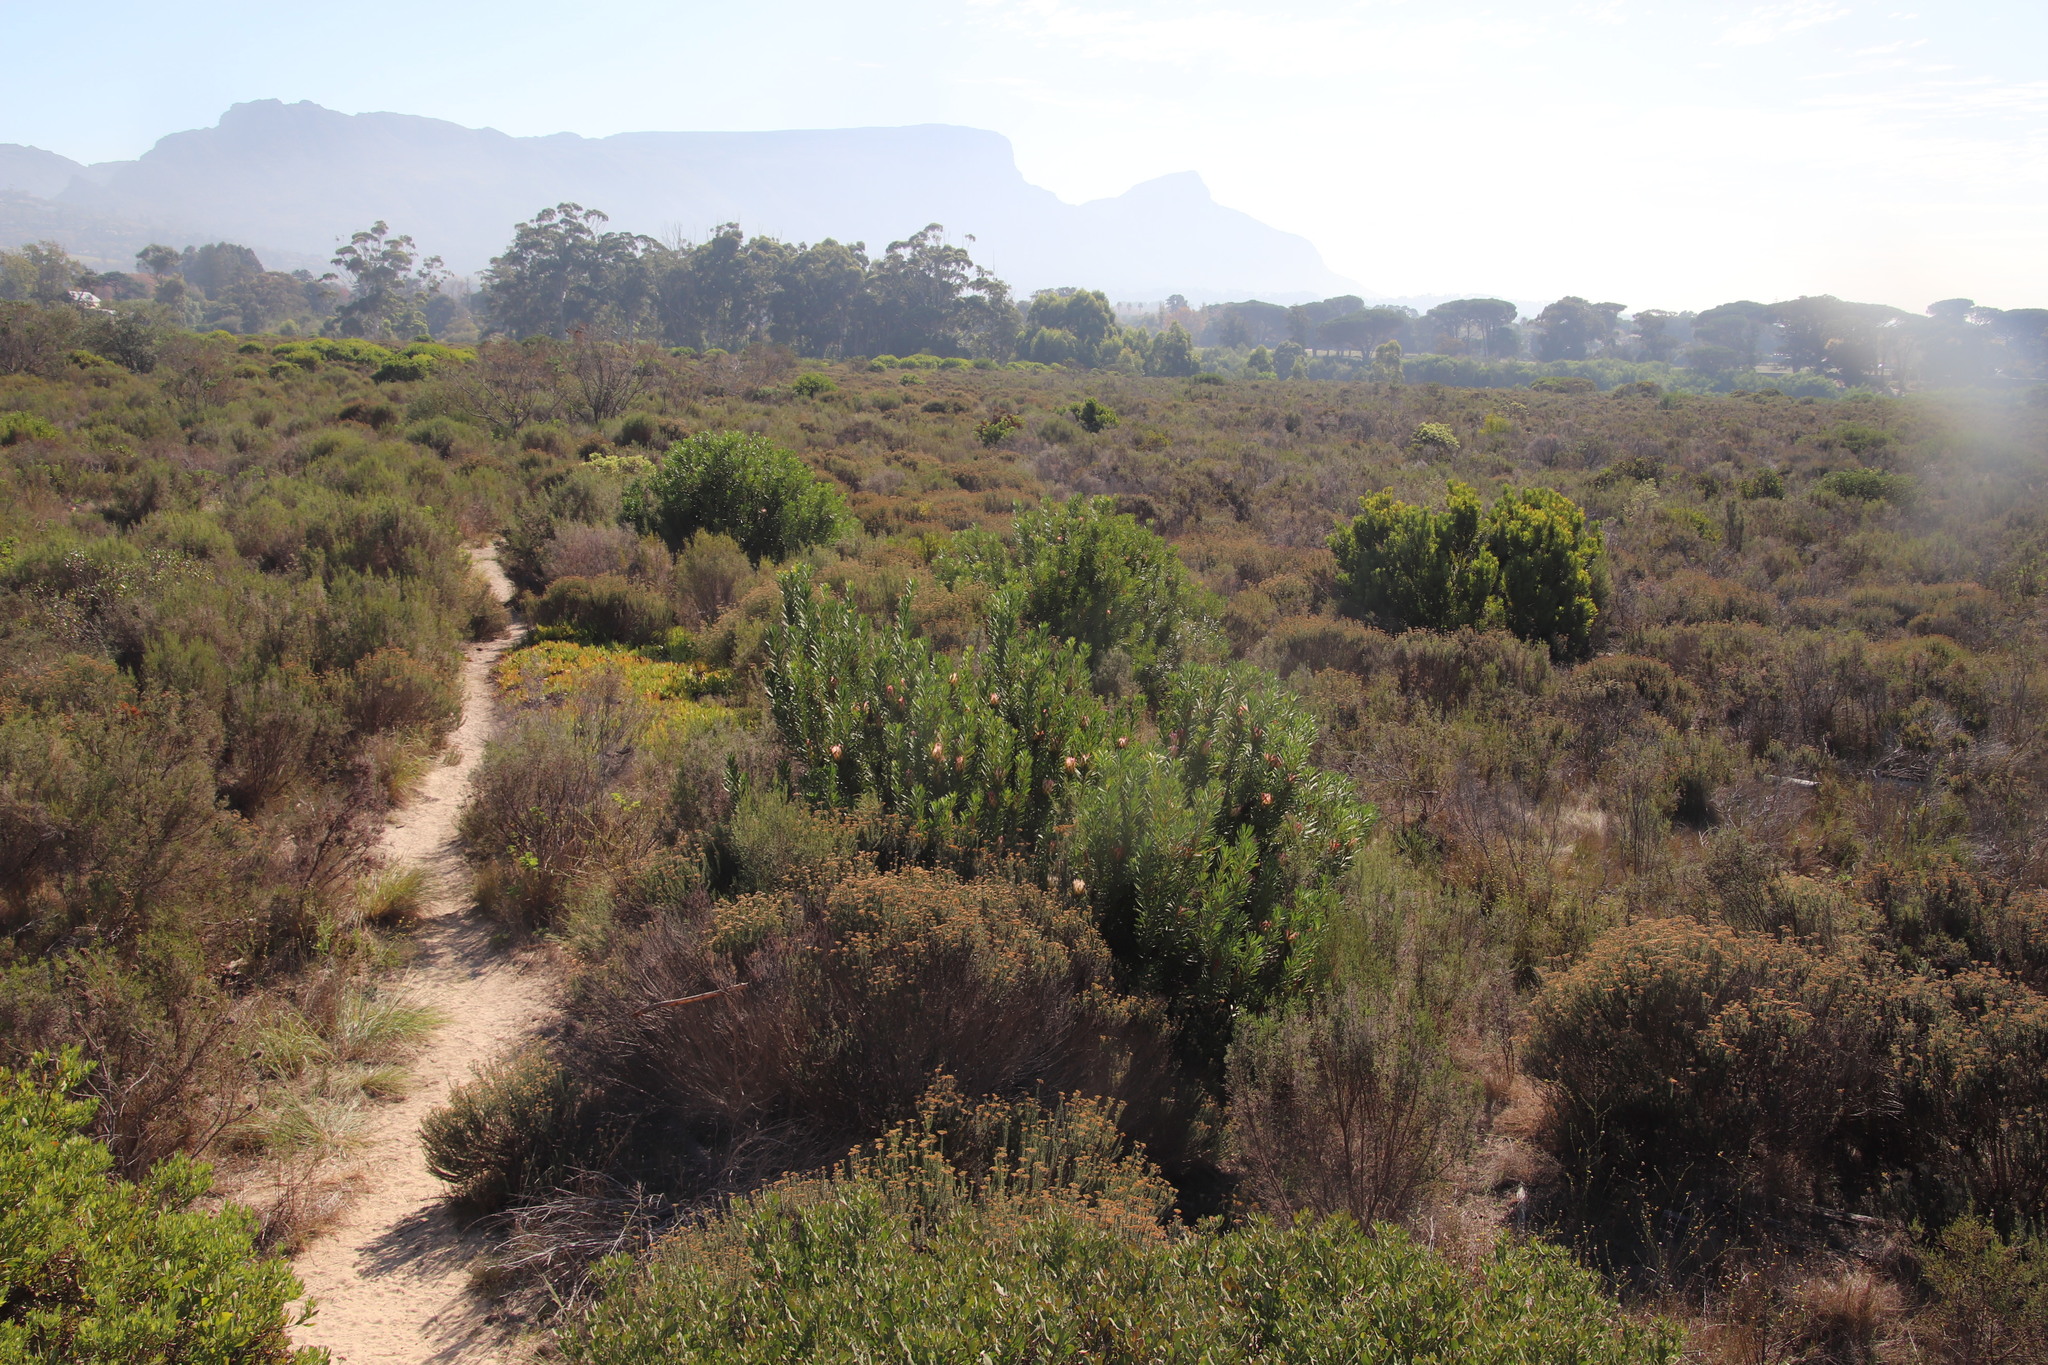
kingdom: Plantae
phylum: Tracheophyta
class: Magnoliopsida
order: Proteales
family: Proteaceae
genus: Protea
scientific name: Protea repens
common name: Sugarbush
